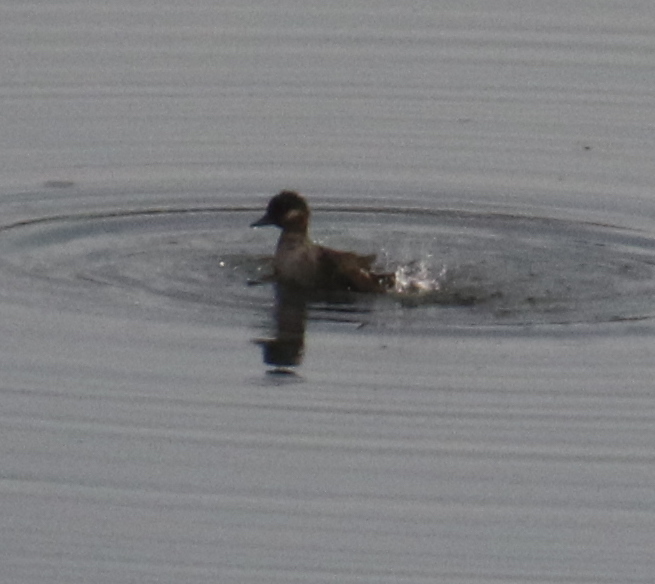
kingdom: Animalia
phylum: Chordata
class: Aves
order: Anseriformes
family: Anatidae
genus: Bucephala
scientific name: Bucephala albeola
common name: Bufflehead
